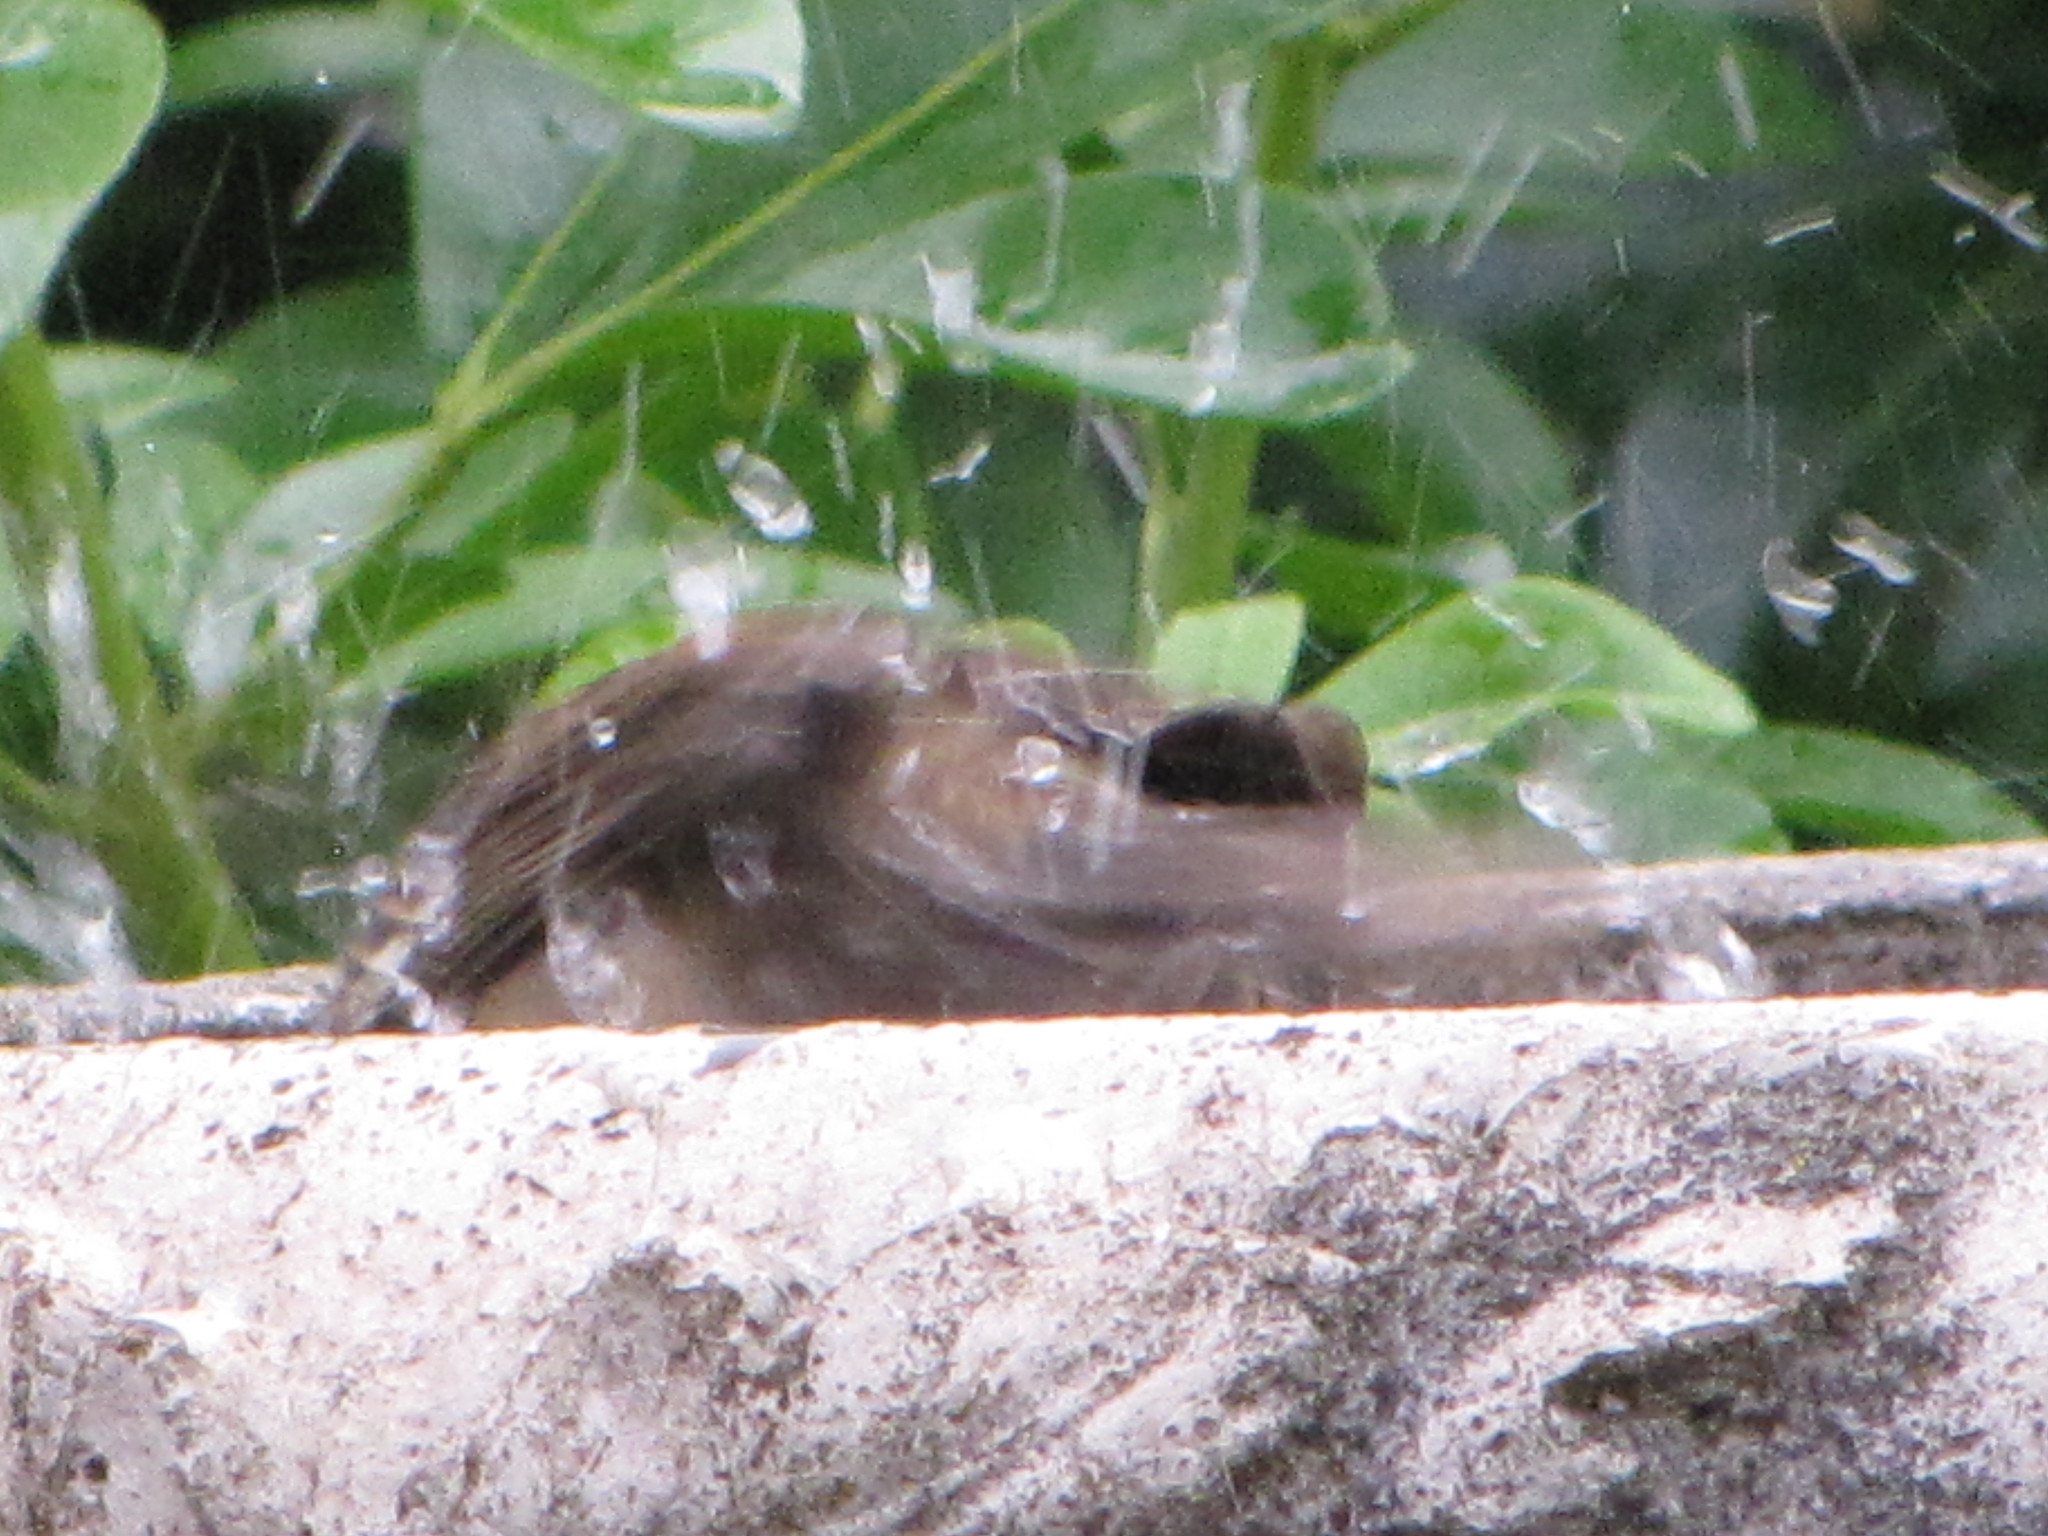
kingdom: Animalia
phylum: Chordata
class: Aves
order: Passeriformes
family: Passerellidae
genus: Zonotrichia
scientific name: Zonotrichia atricapilla
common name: Golden-crowned sparrow
